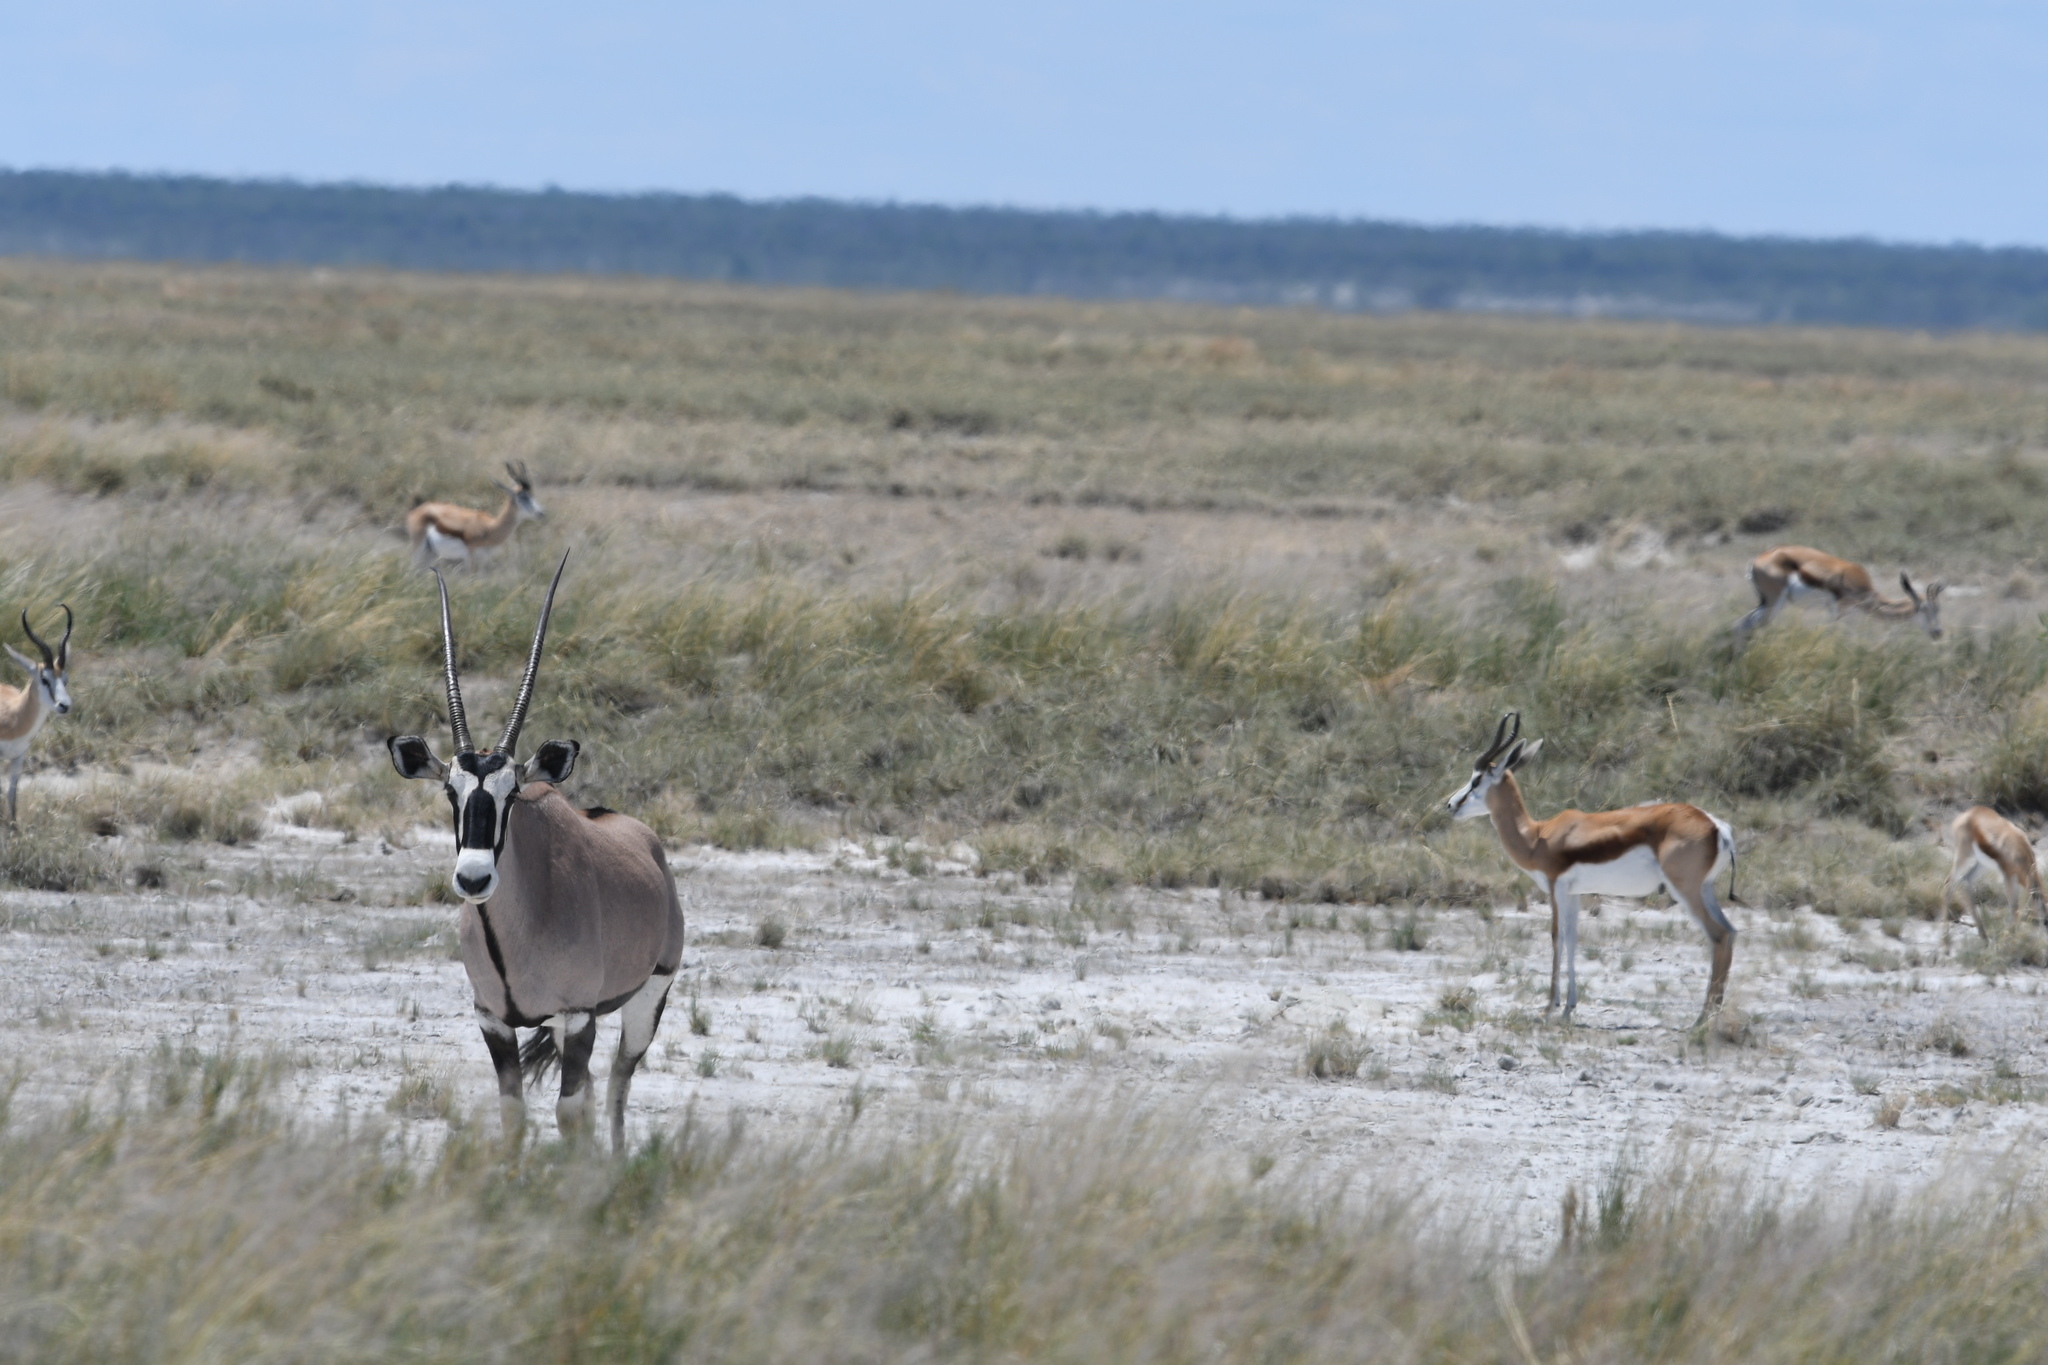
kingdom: Animalia
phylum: Chordata
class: Mammalia
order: Artiodactyla
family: Bovidae
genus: Oryx
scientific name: Oryx gazella
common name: Gemsbok
